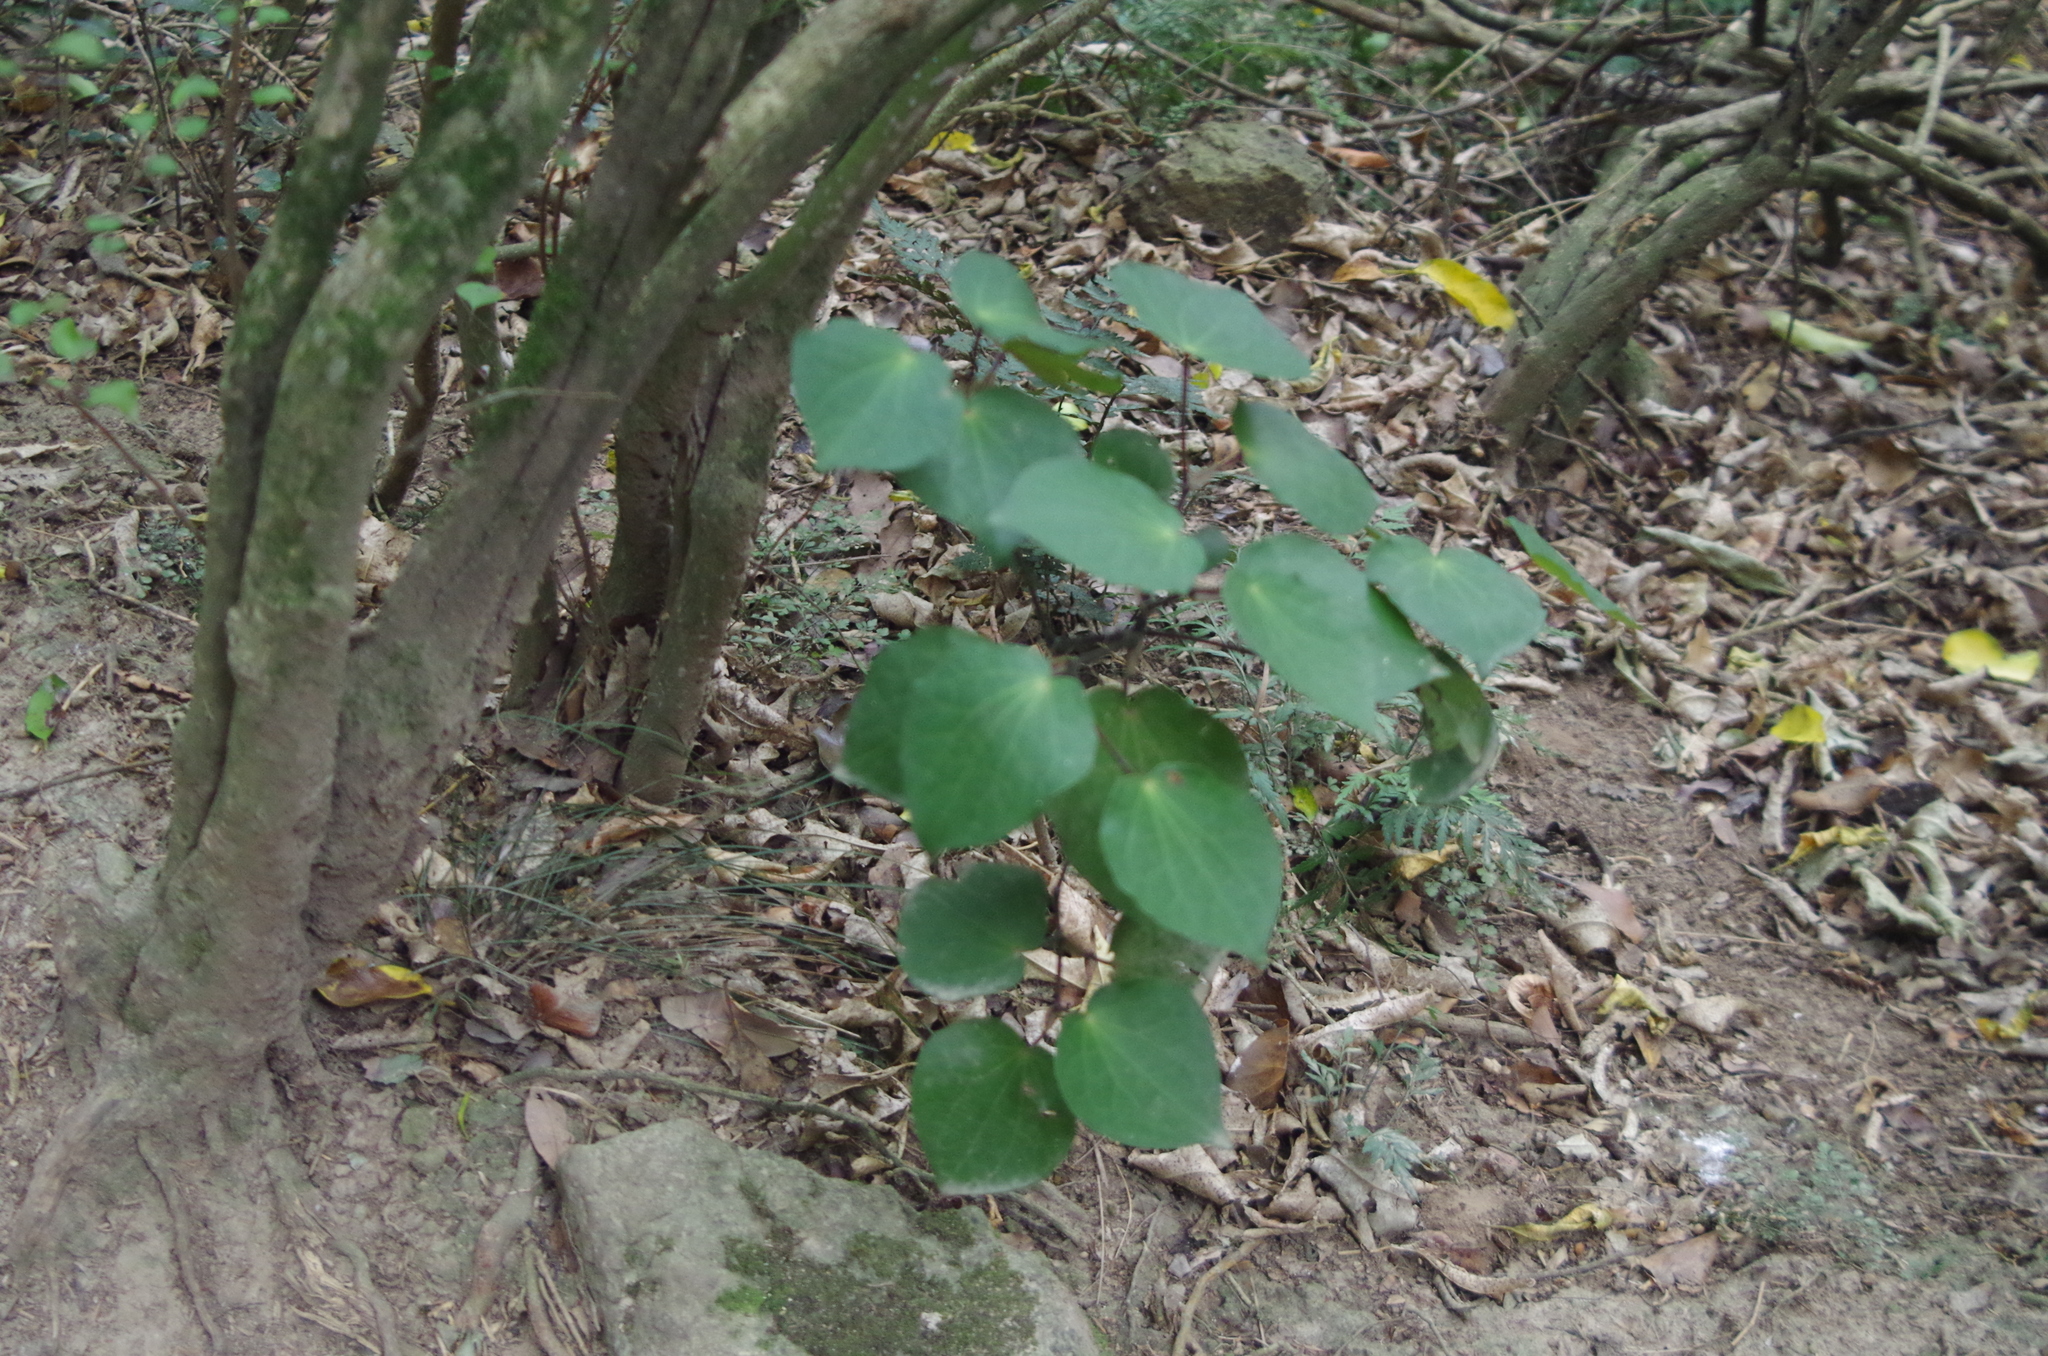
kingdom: Plantae
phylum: Tracheophyta
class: Magnoliopsida
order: Piperales
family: Piperaceae
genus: Macropiper
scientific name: Macropiper excelsum
